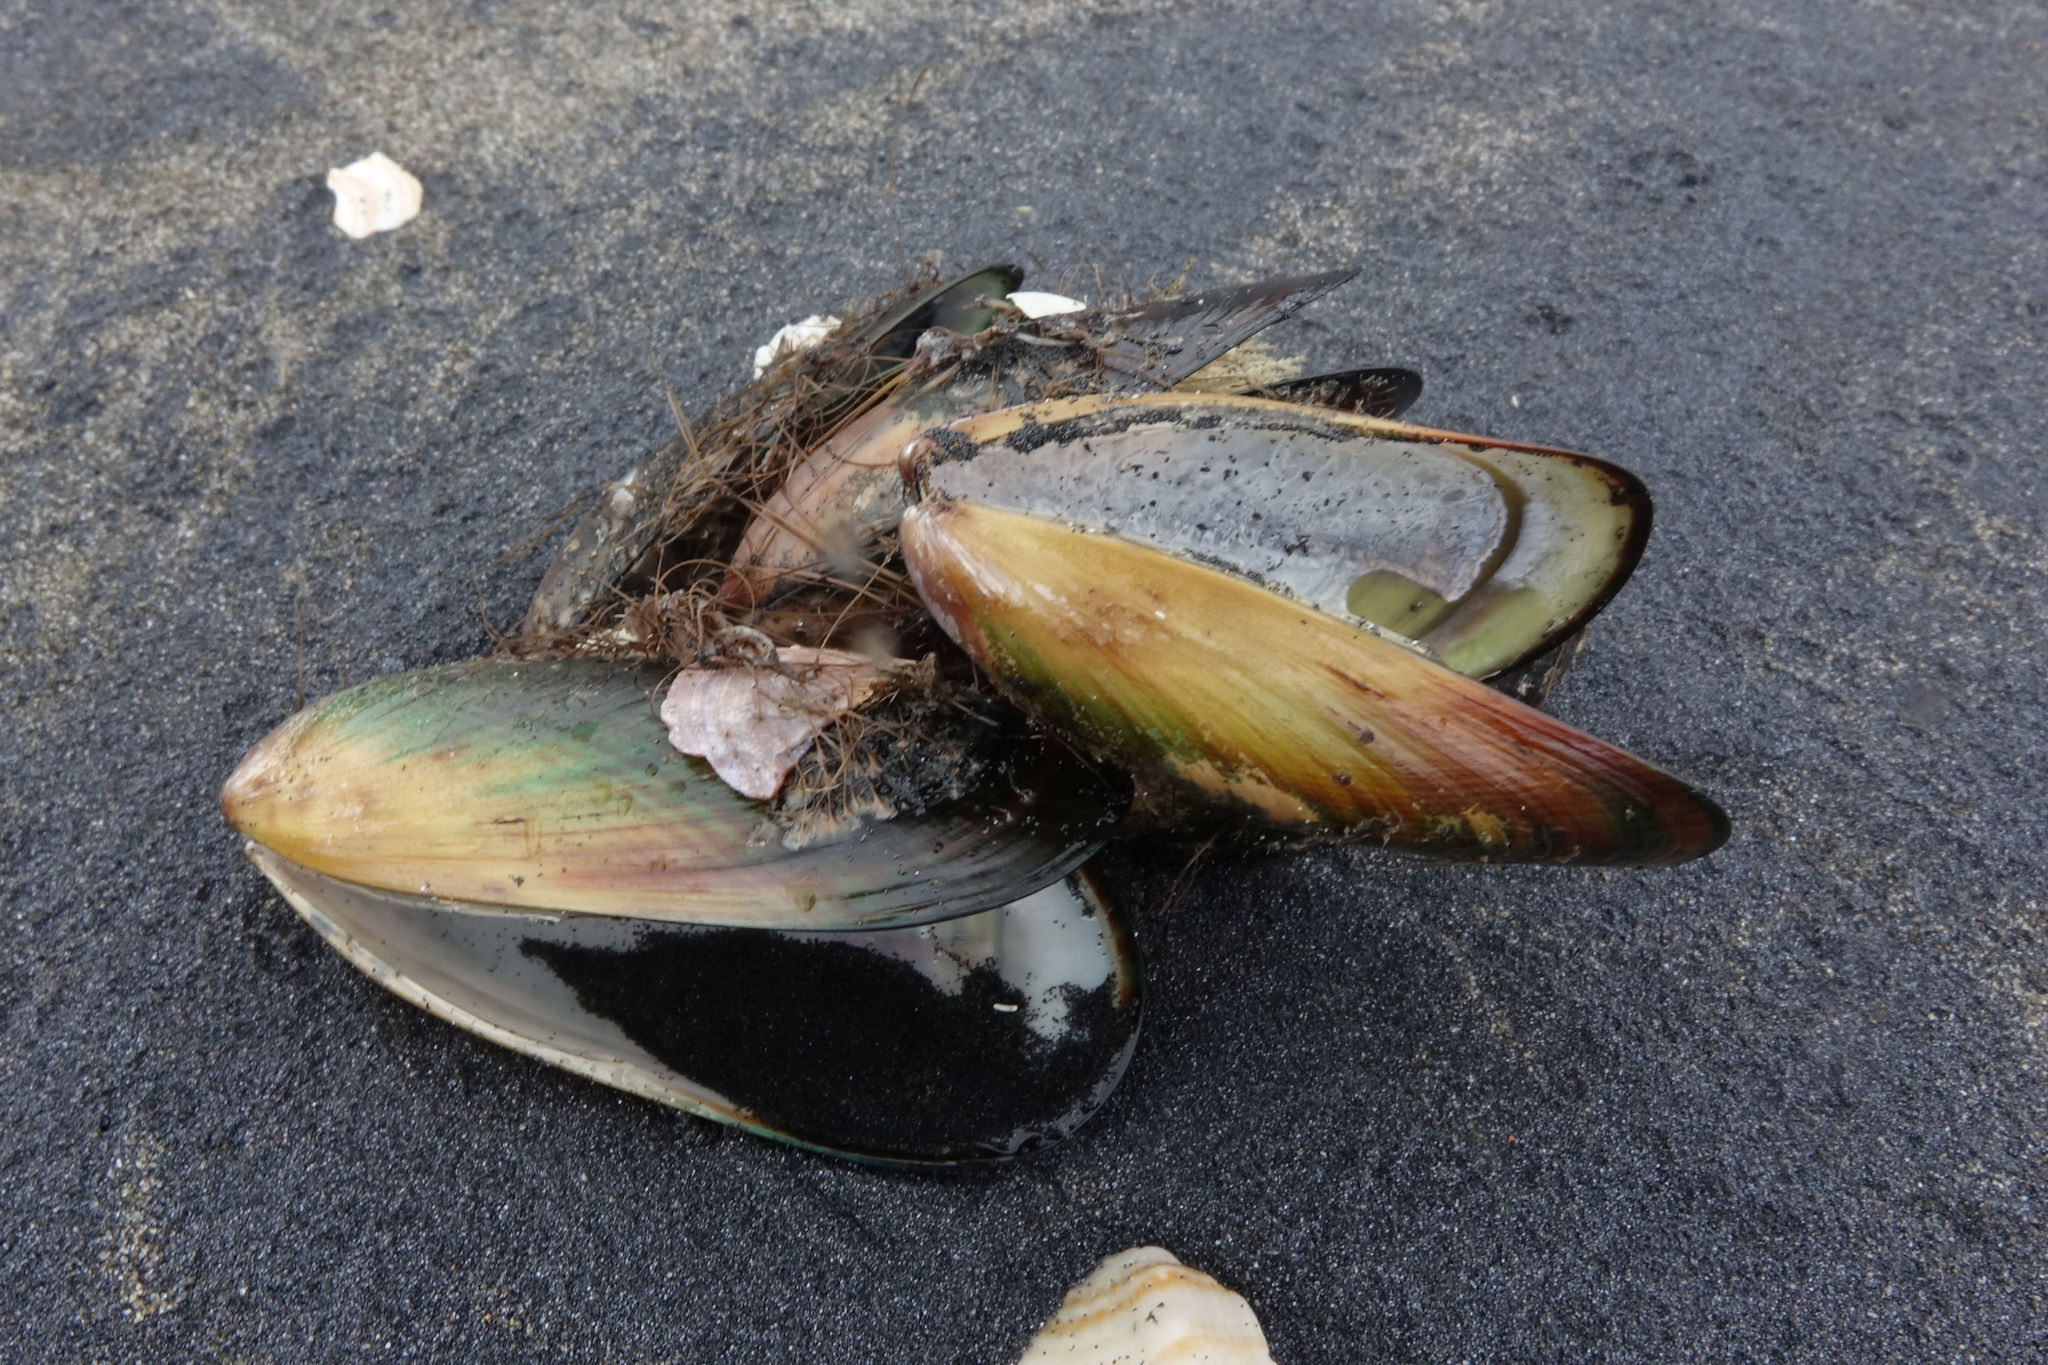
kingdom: Animalia
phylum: Mollusca
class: Bivalvia
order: Mytilida
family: Mytilidae
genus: Perna
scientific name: Perna canaliculus
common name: New zealand greenshelltm
